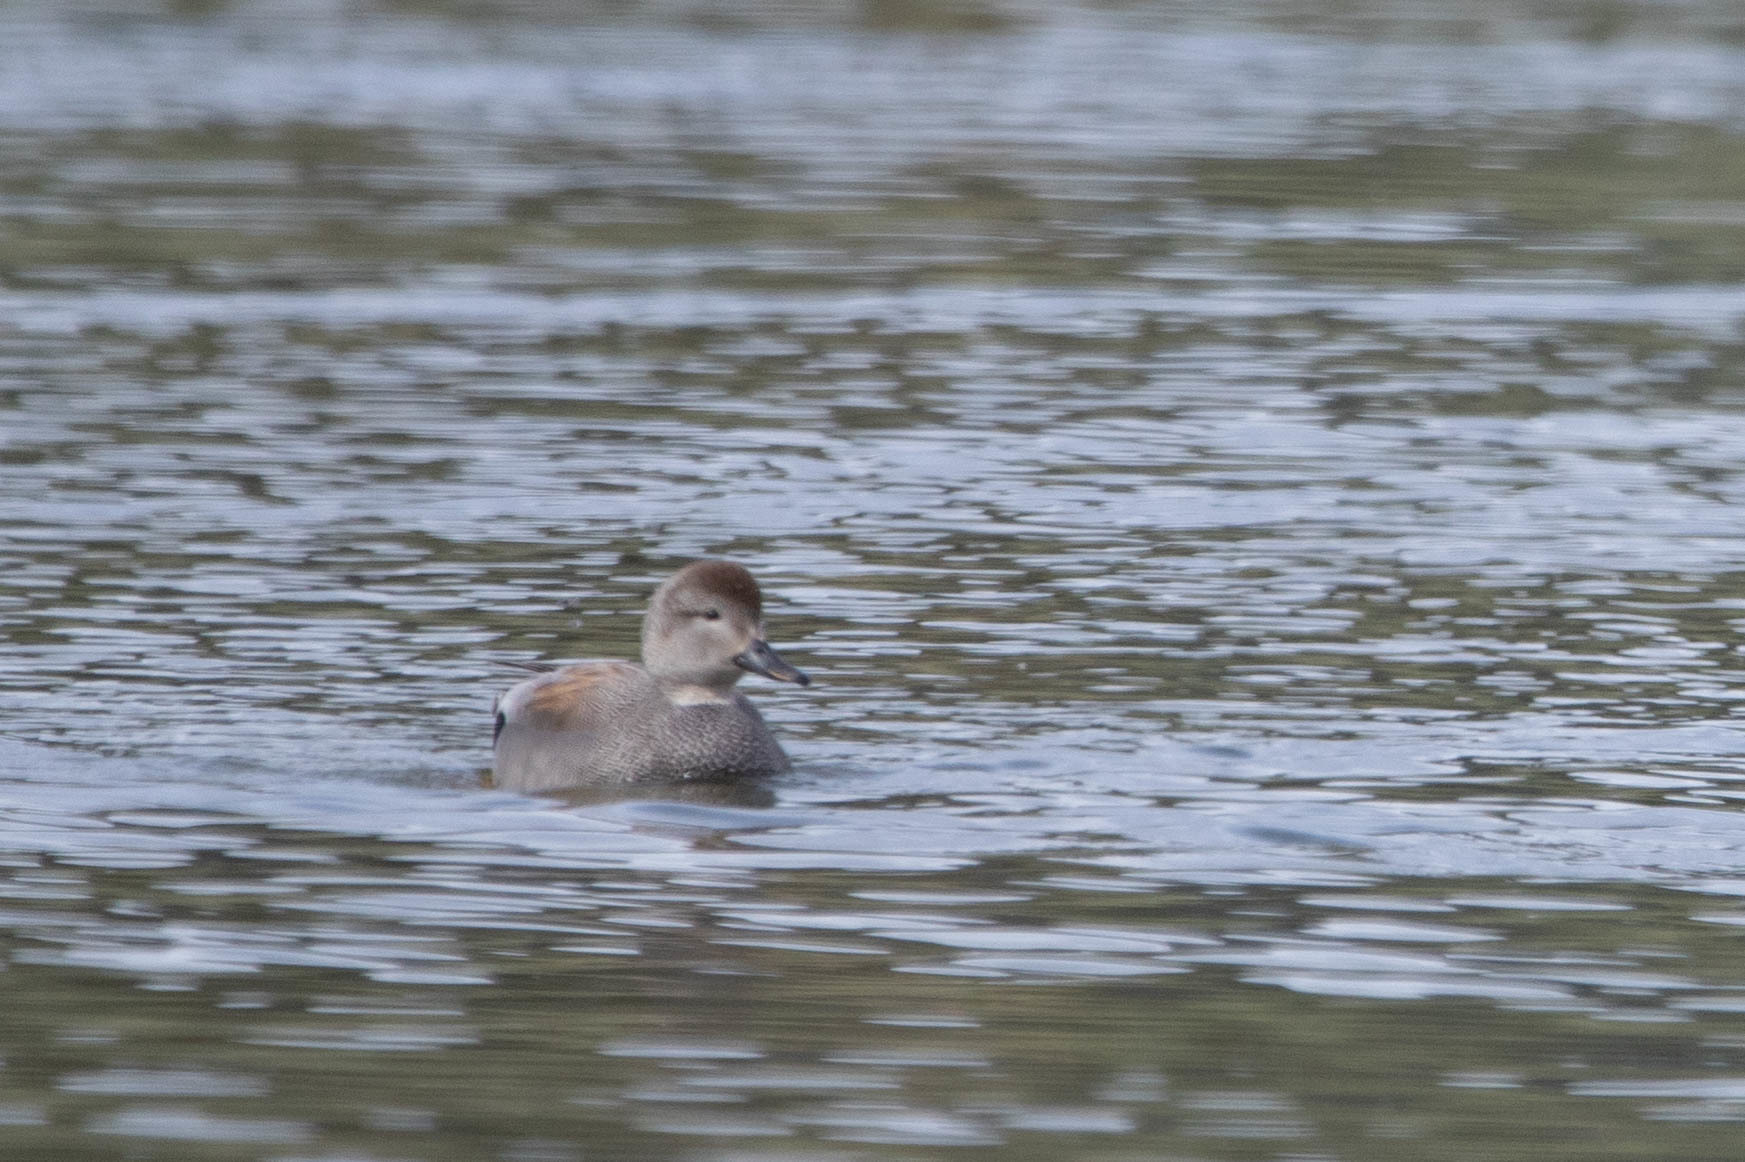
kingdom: Animalia
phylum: Chordata
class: Aves
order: Anseriformes
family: Anatidae
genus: Mareca
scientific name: Mareca strepera
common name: Gadwall
